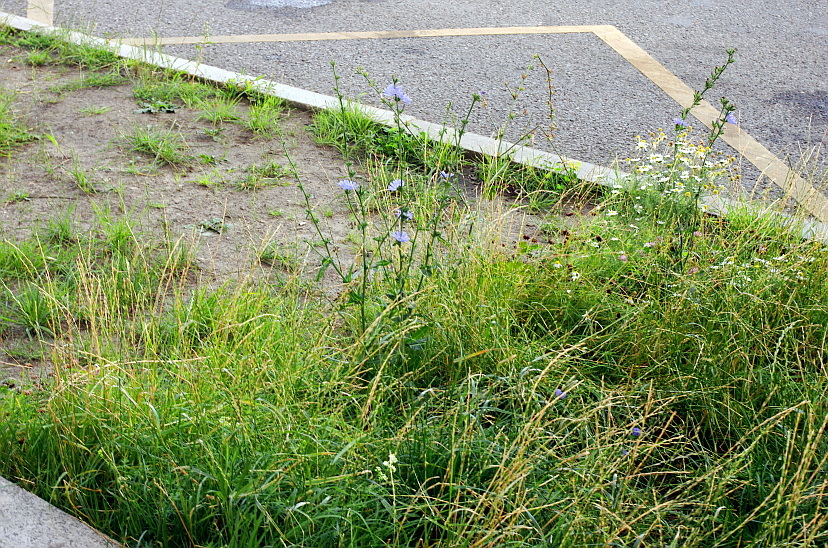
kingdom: Plantae
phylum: Tracheophyta
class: Magnoliopsida
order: Fabales
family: Fabaceae
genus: Trifolium
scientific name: Trifolium hybridum
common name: Alsike clover
